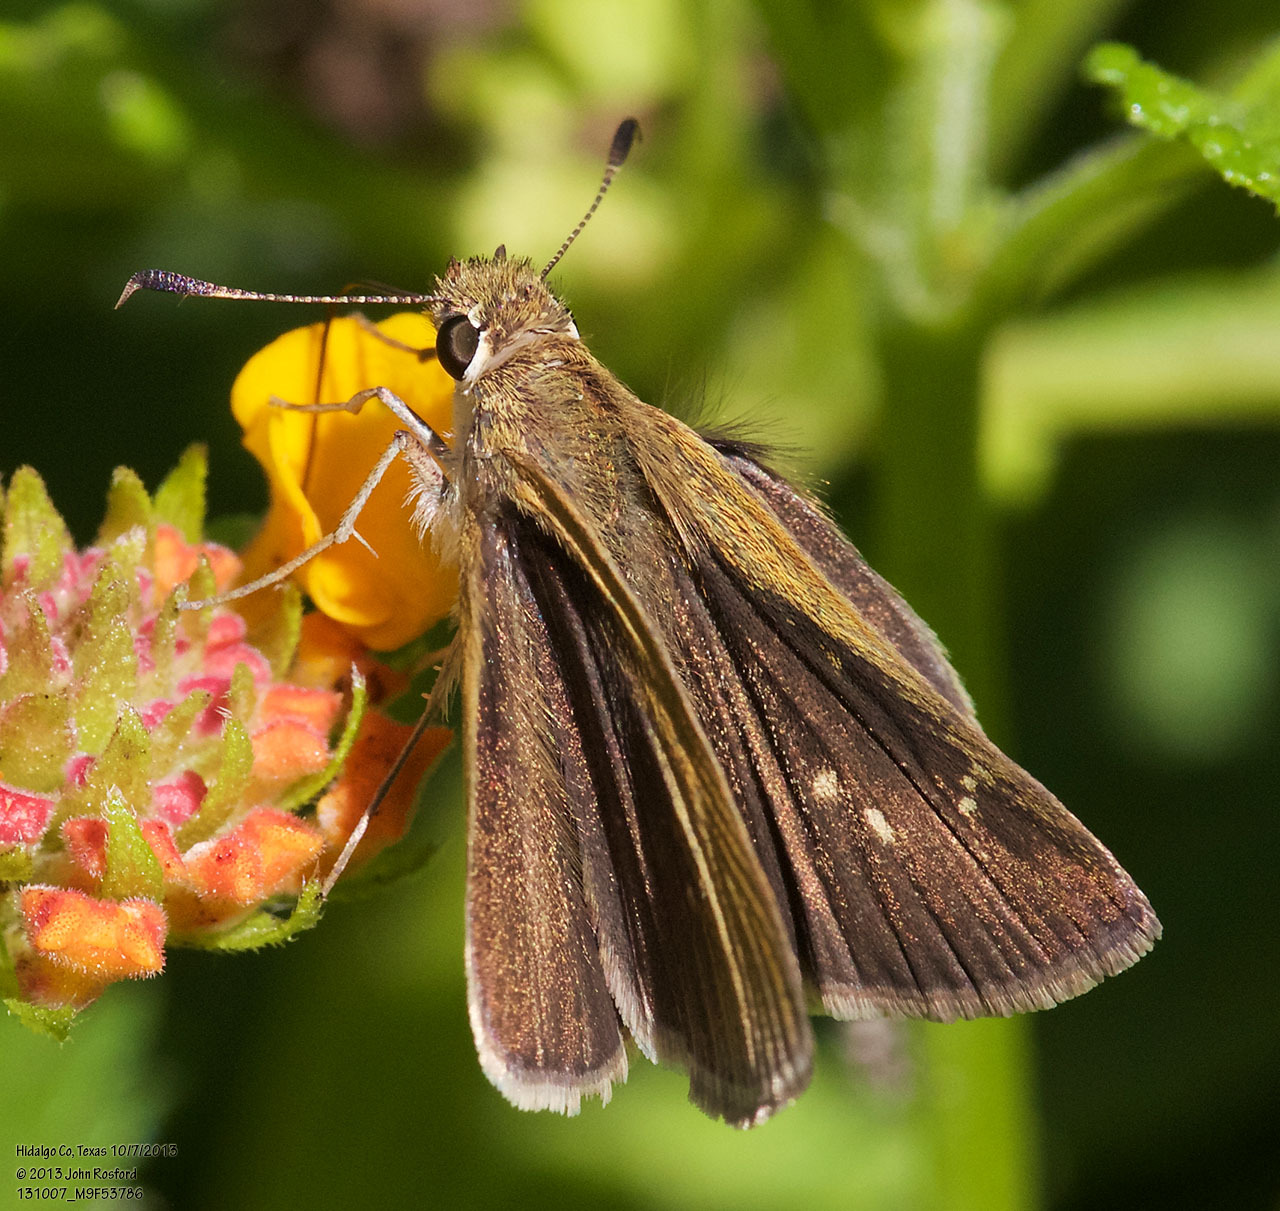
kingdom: Animalia
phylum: Arthropoda
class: Insecta
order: Lepidoptera
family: Hesperiidae
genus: Nastra
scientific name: Nastra julia
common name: Julia's skipper
